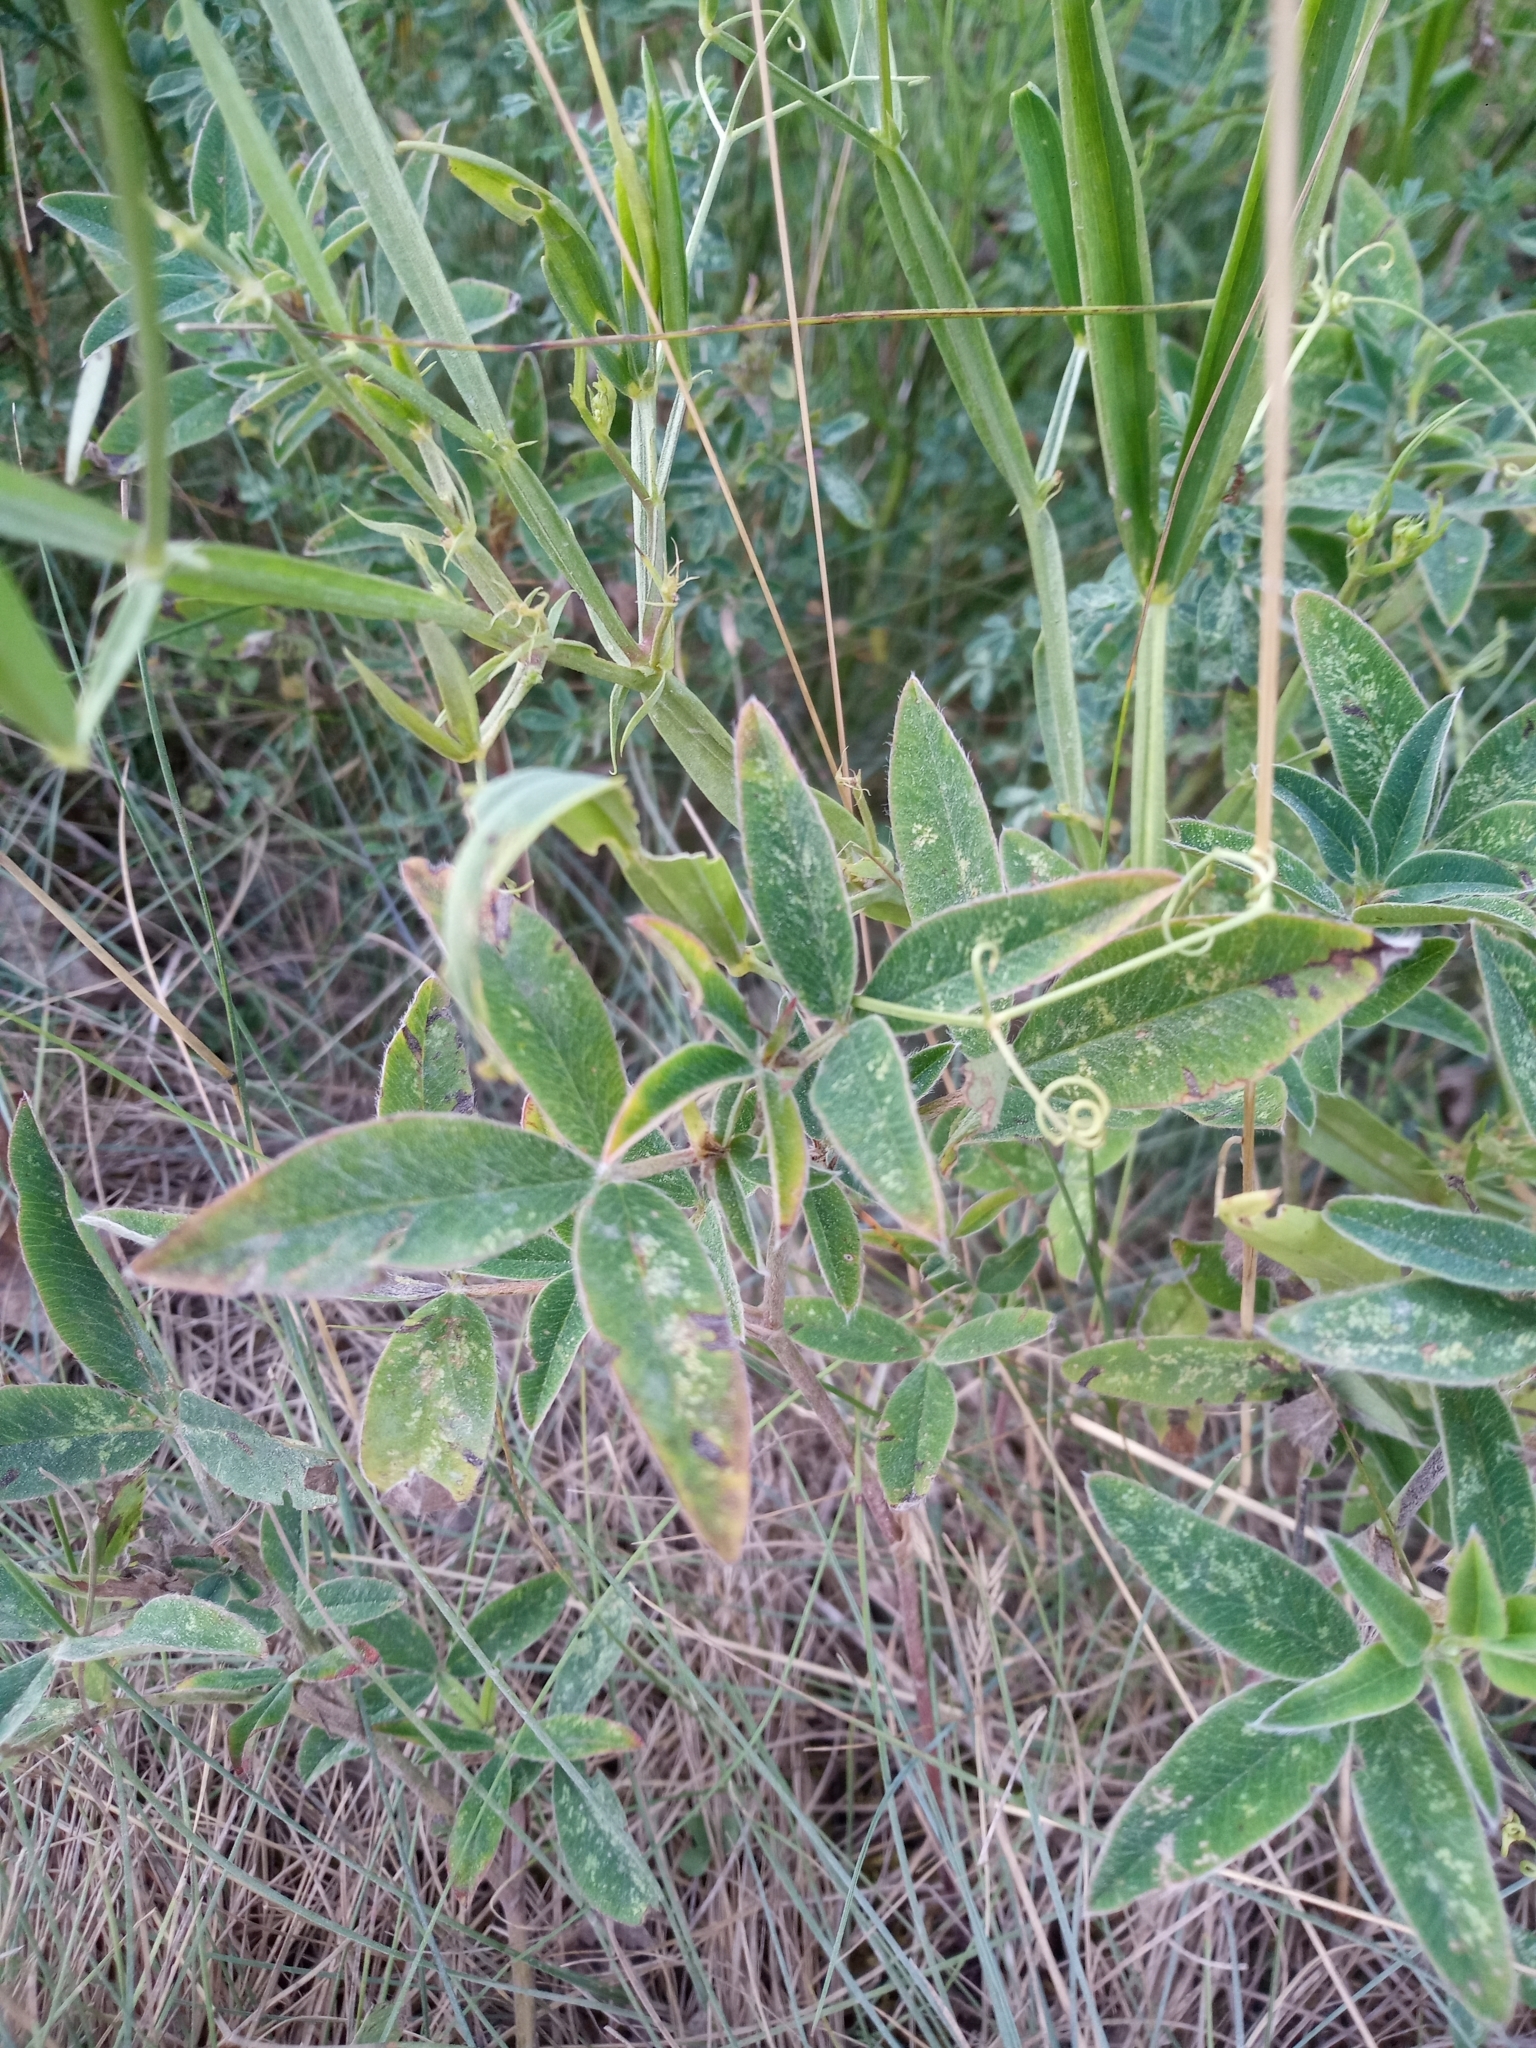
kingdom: Plantae
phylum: Tracheophyta
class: Magnoliopsida
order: Fabales
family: Fabaceae
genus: Lathyrus
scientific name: Lathyrus sylvestris
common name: Flat pea
